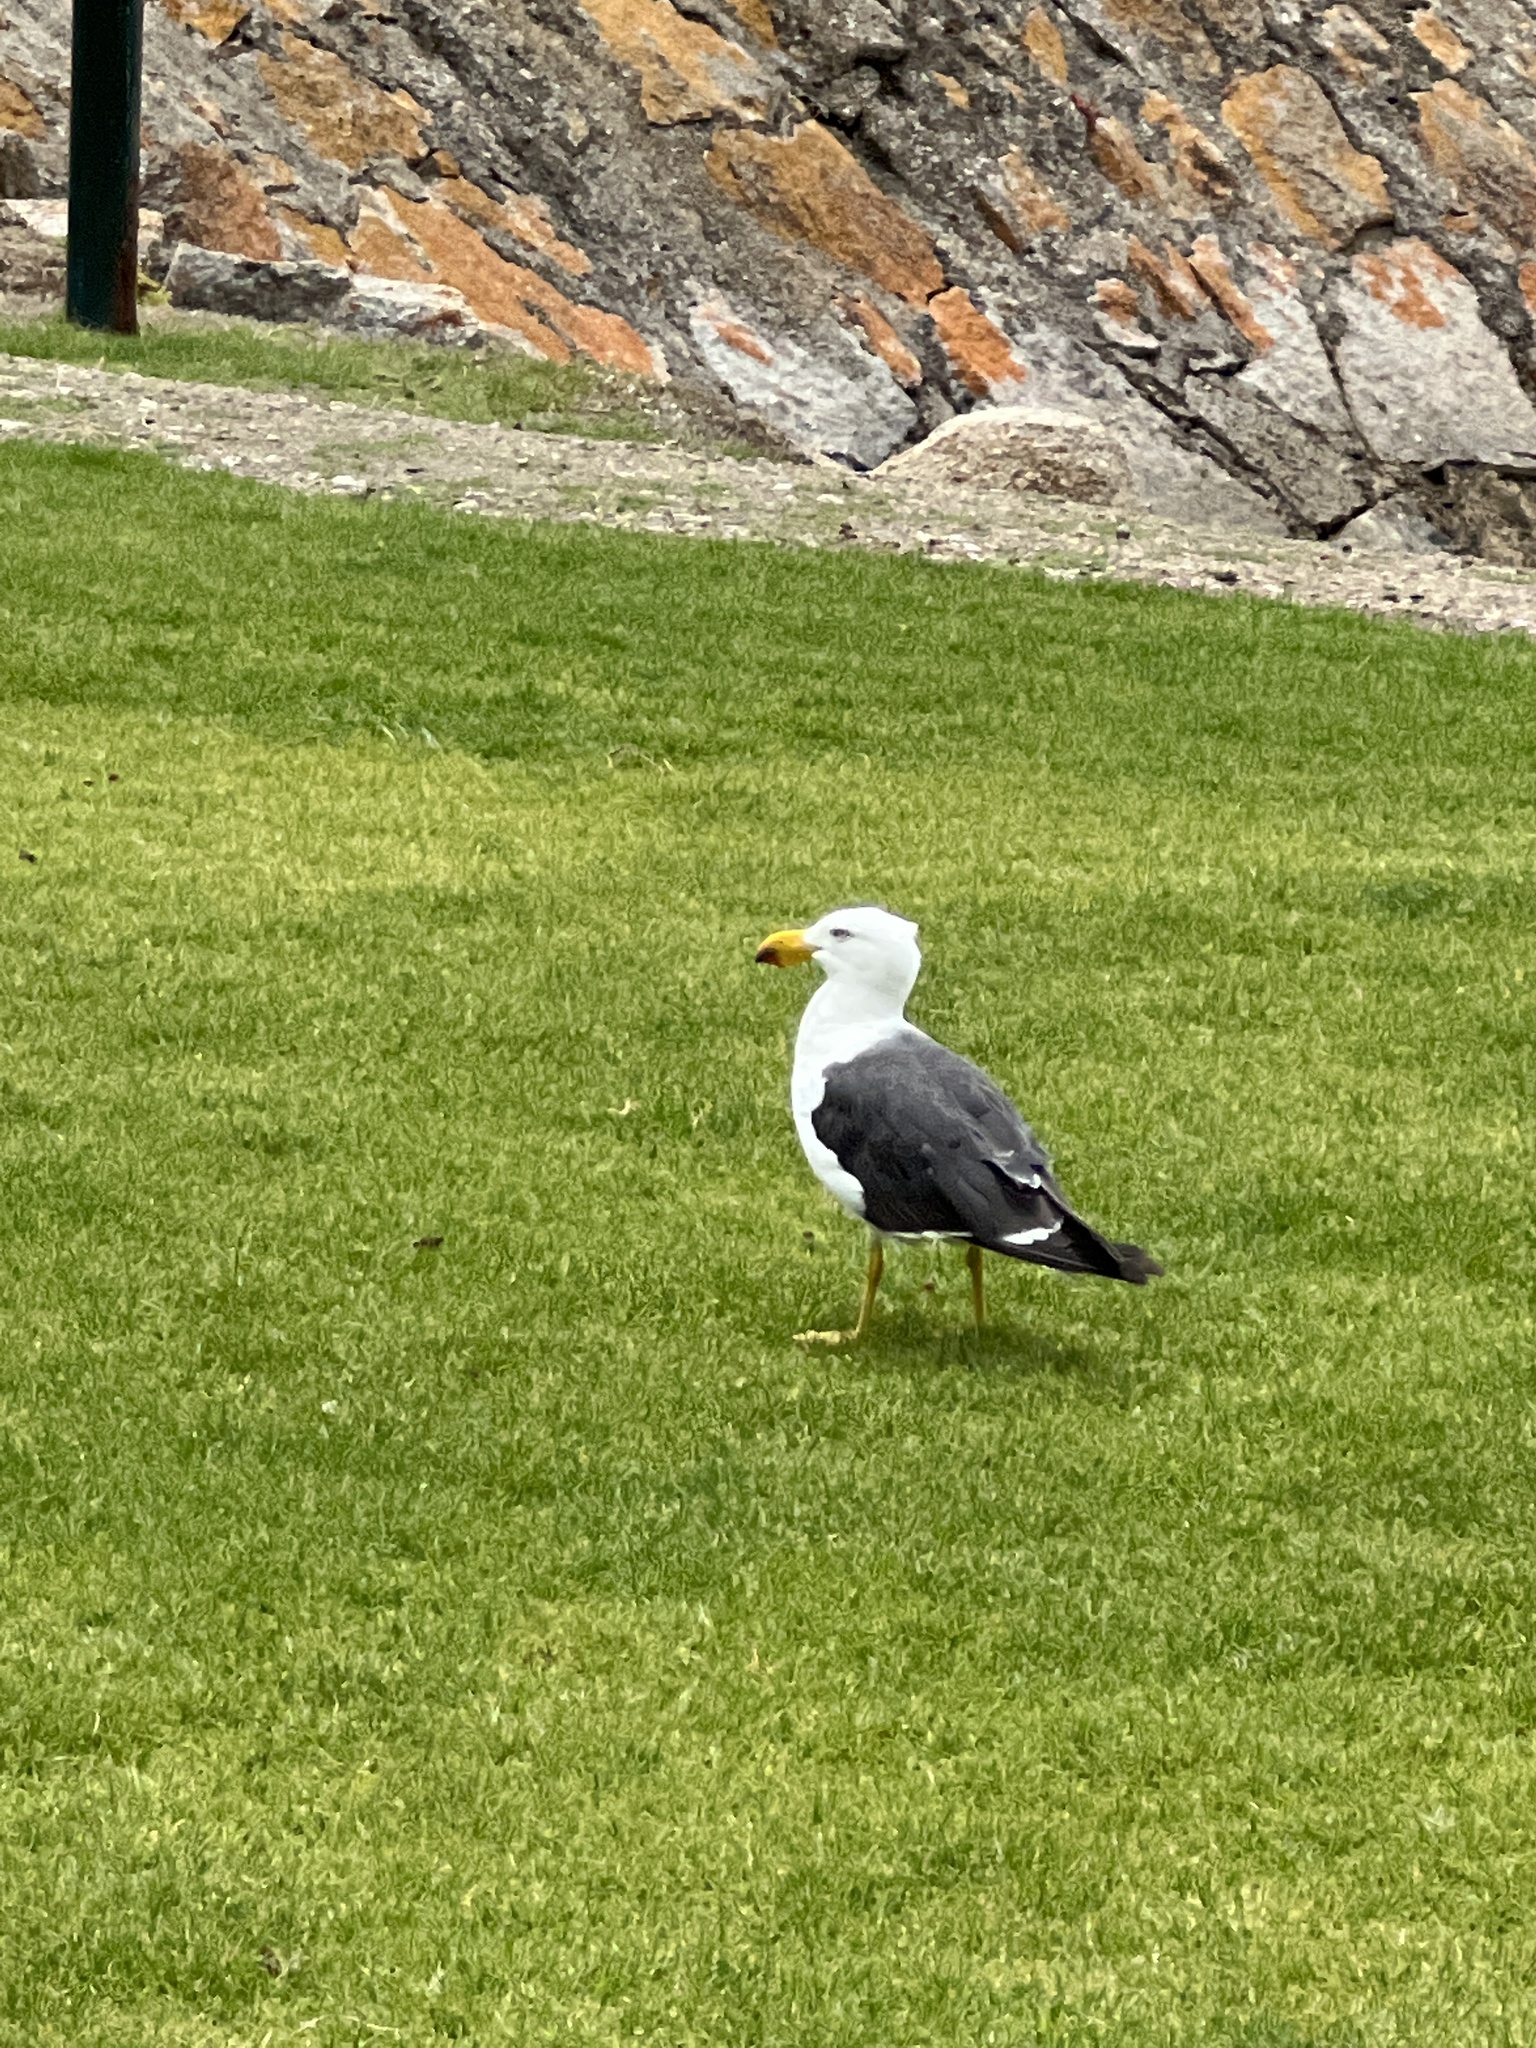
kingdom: Animalia
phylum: Chordata
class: Aves
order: Charadriiformes
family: Laridae
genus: Larus
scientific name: Larus pacificus
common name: Pacific gull
